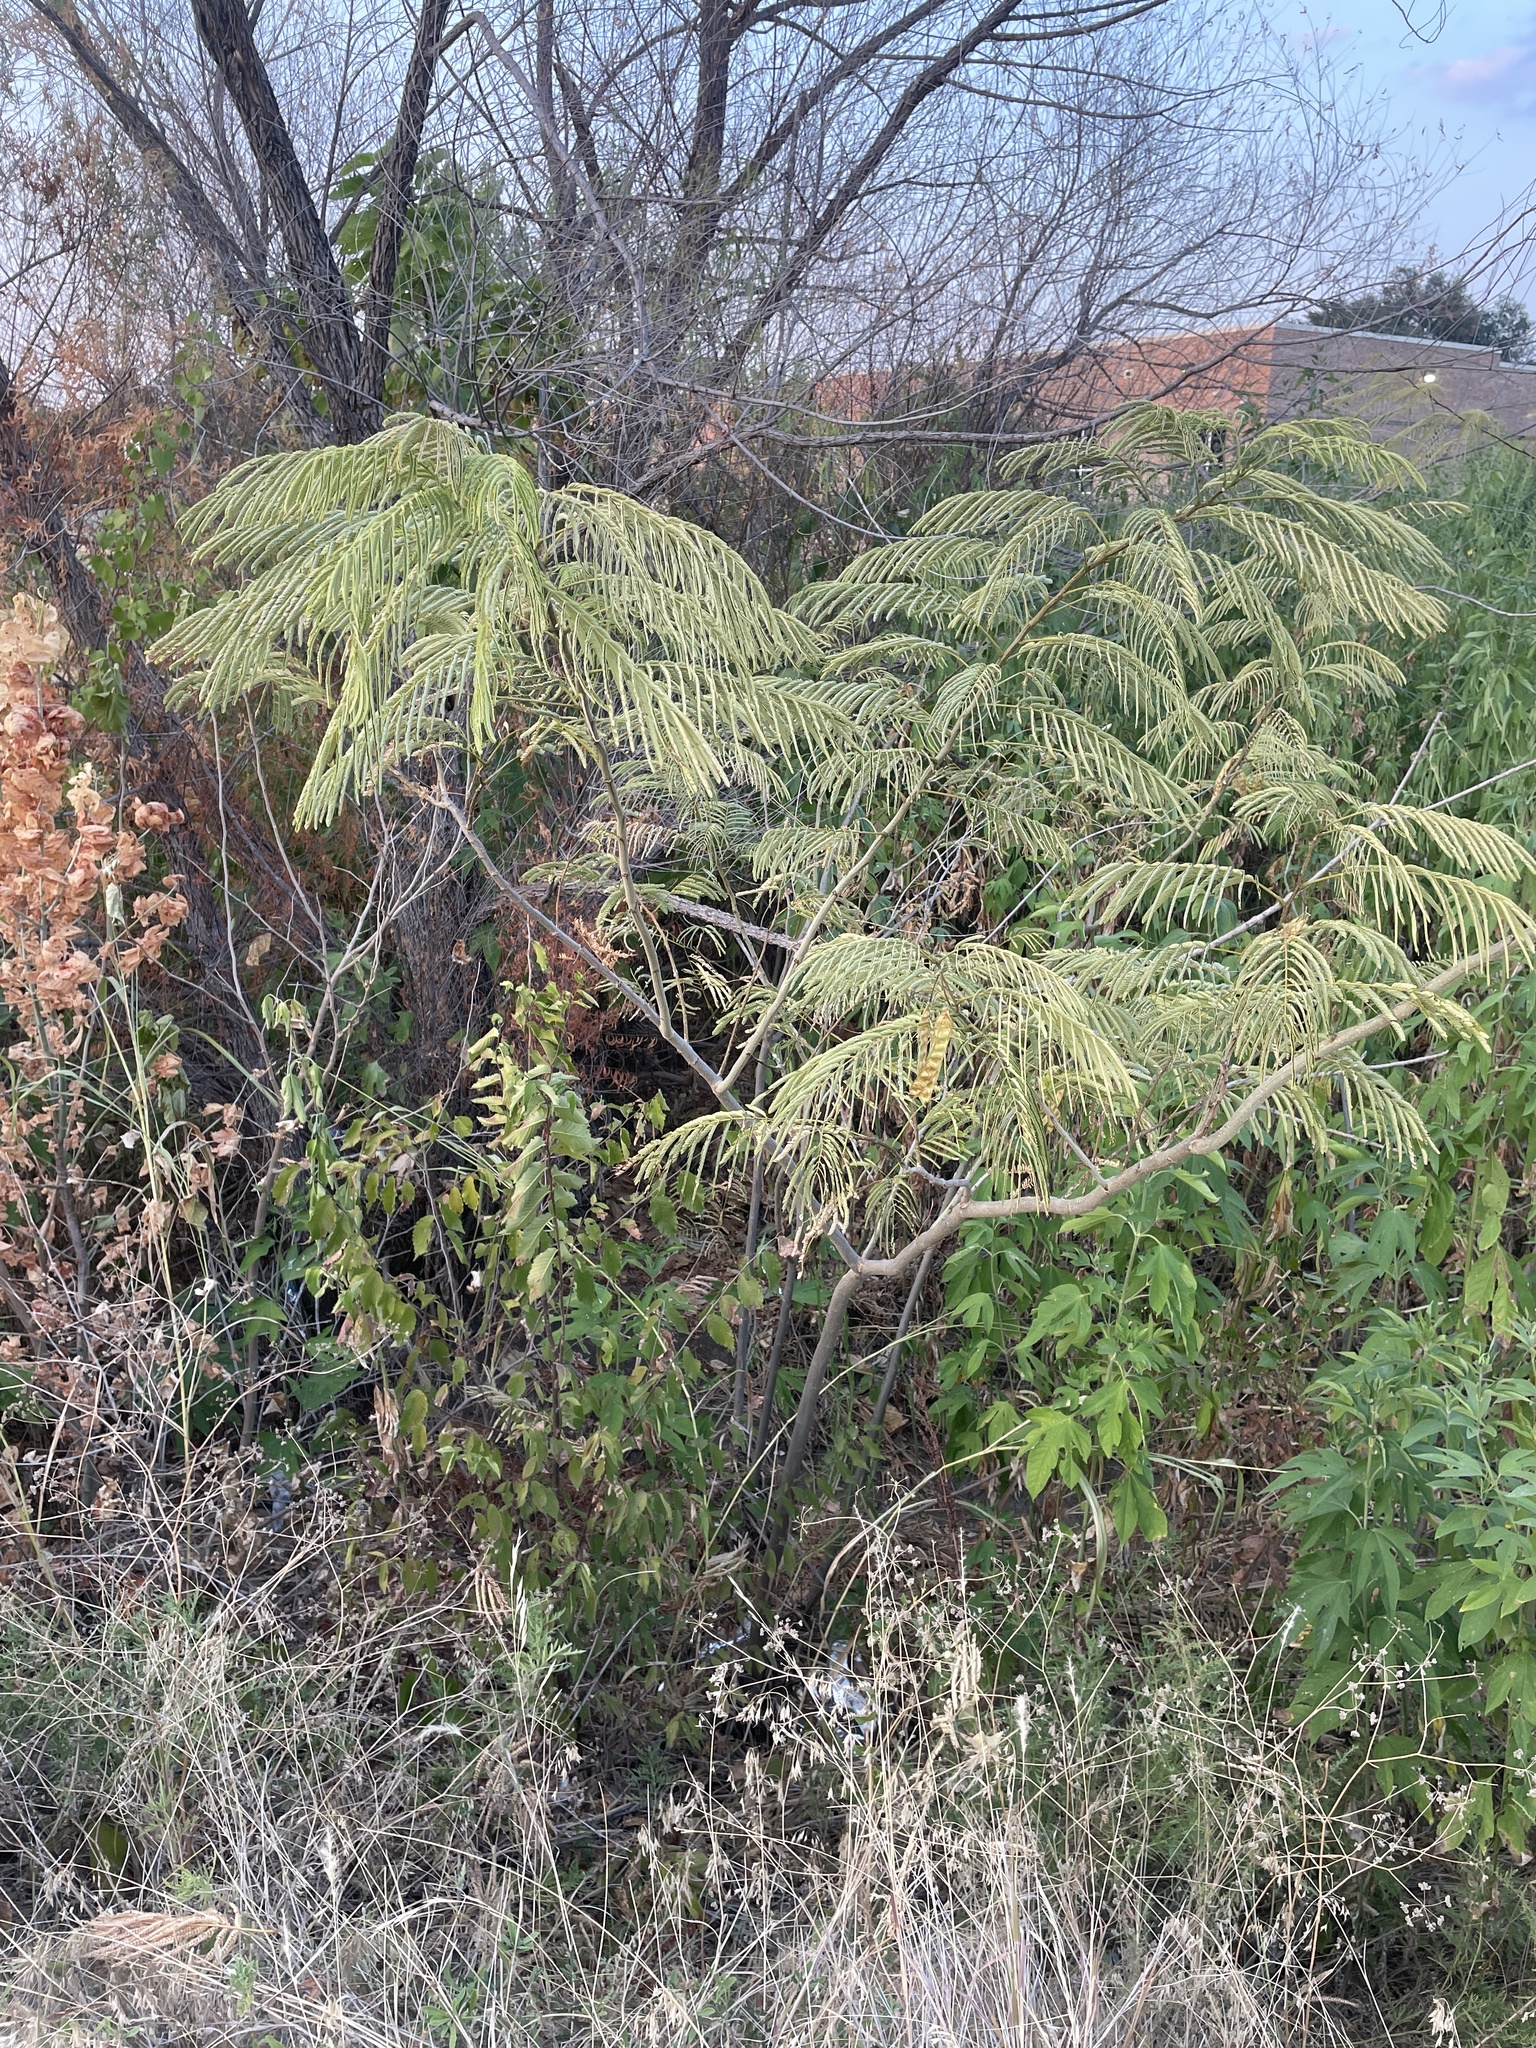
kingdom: Plantae
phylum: Tracheophyta
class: Magnoliopsida
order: Fabales
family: Fabaceae
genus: Albizia
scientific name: Albizia julibrissin
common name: Silktree
